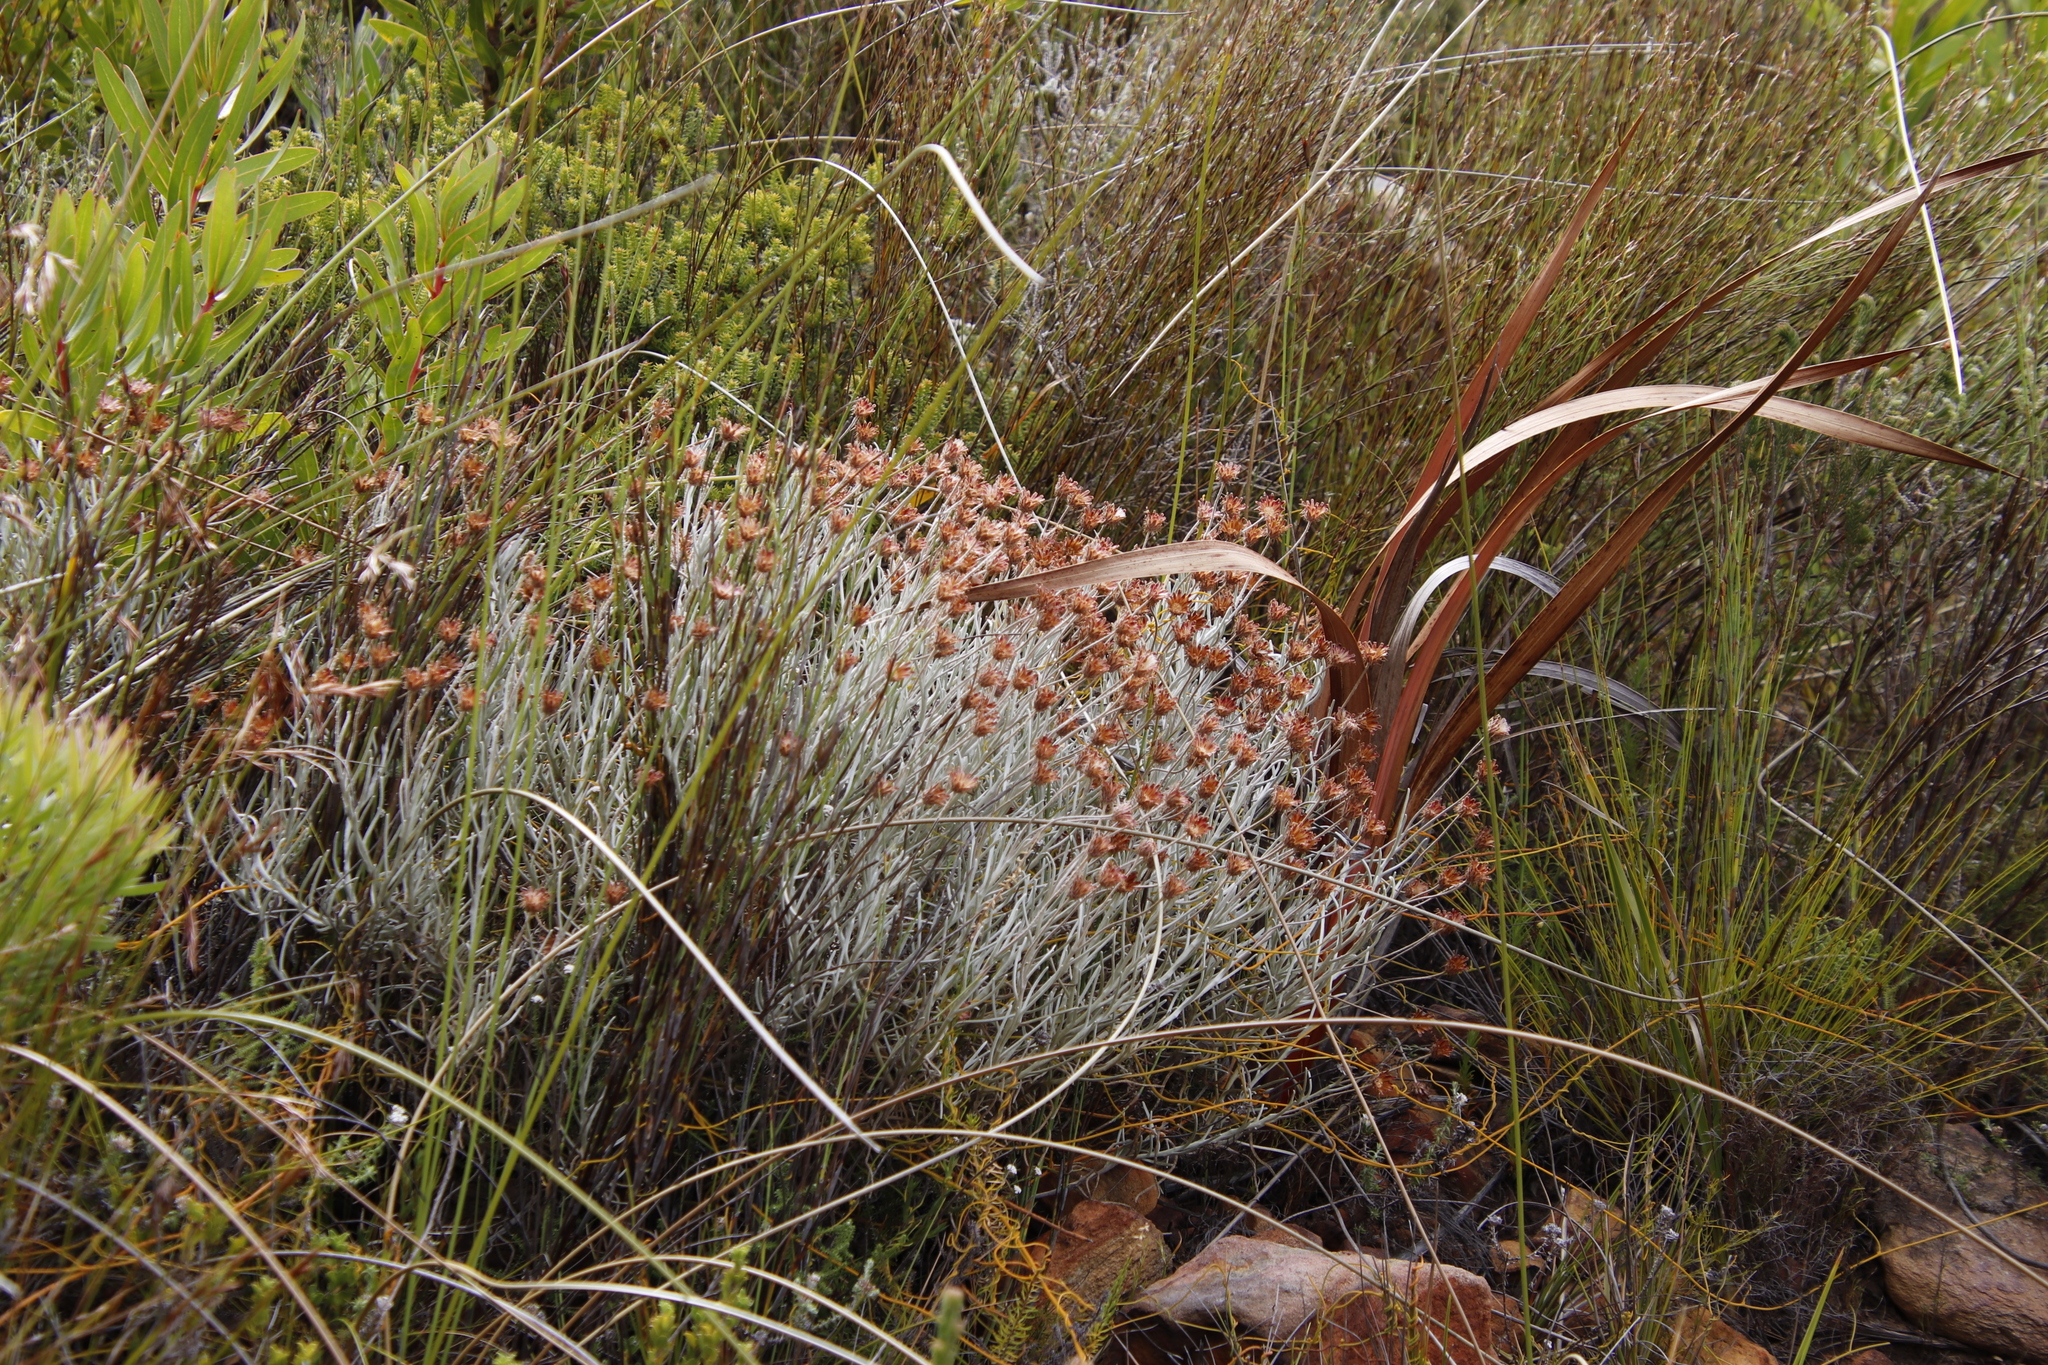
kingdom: Plantae
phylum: Tracheophyta
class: Magnoliopsida
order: Asterales
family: Asteraceae
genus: Syncarpha
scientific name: Syncarpha gnaphaloides
